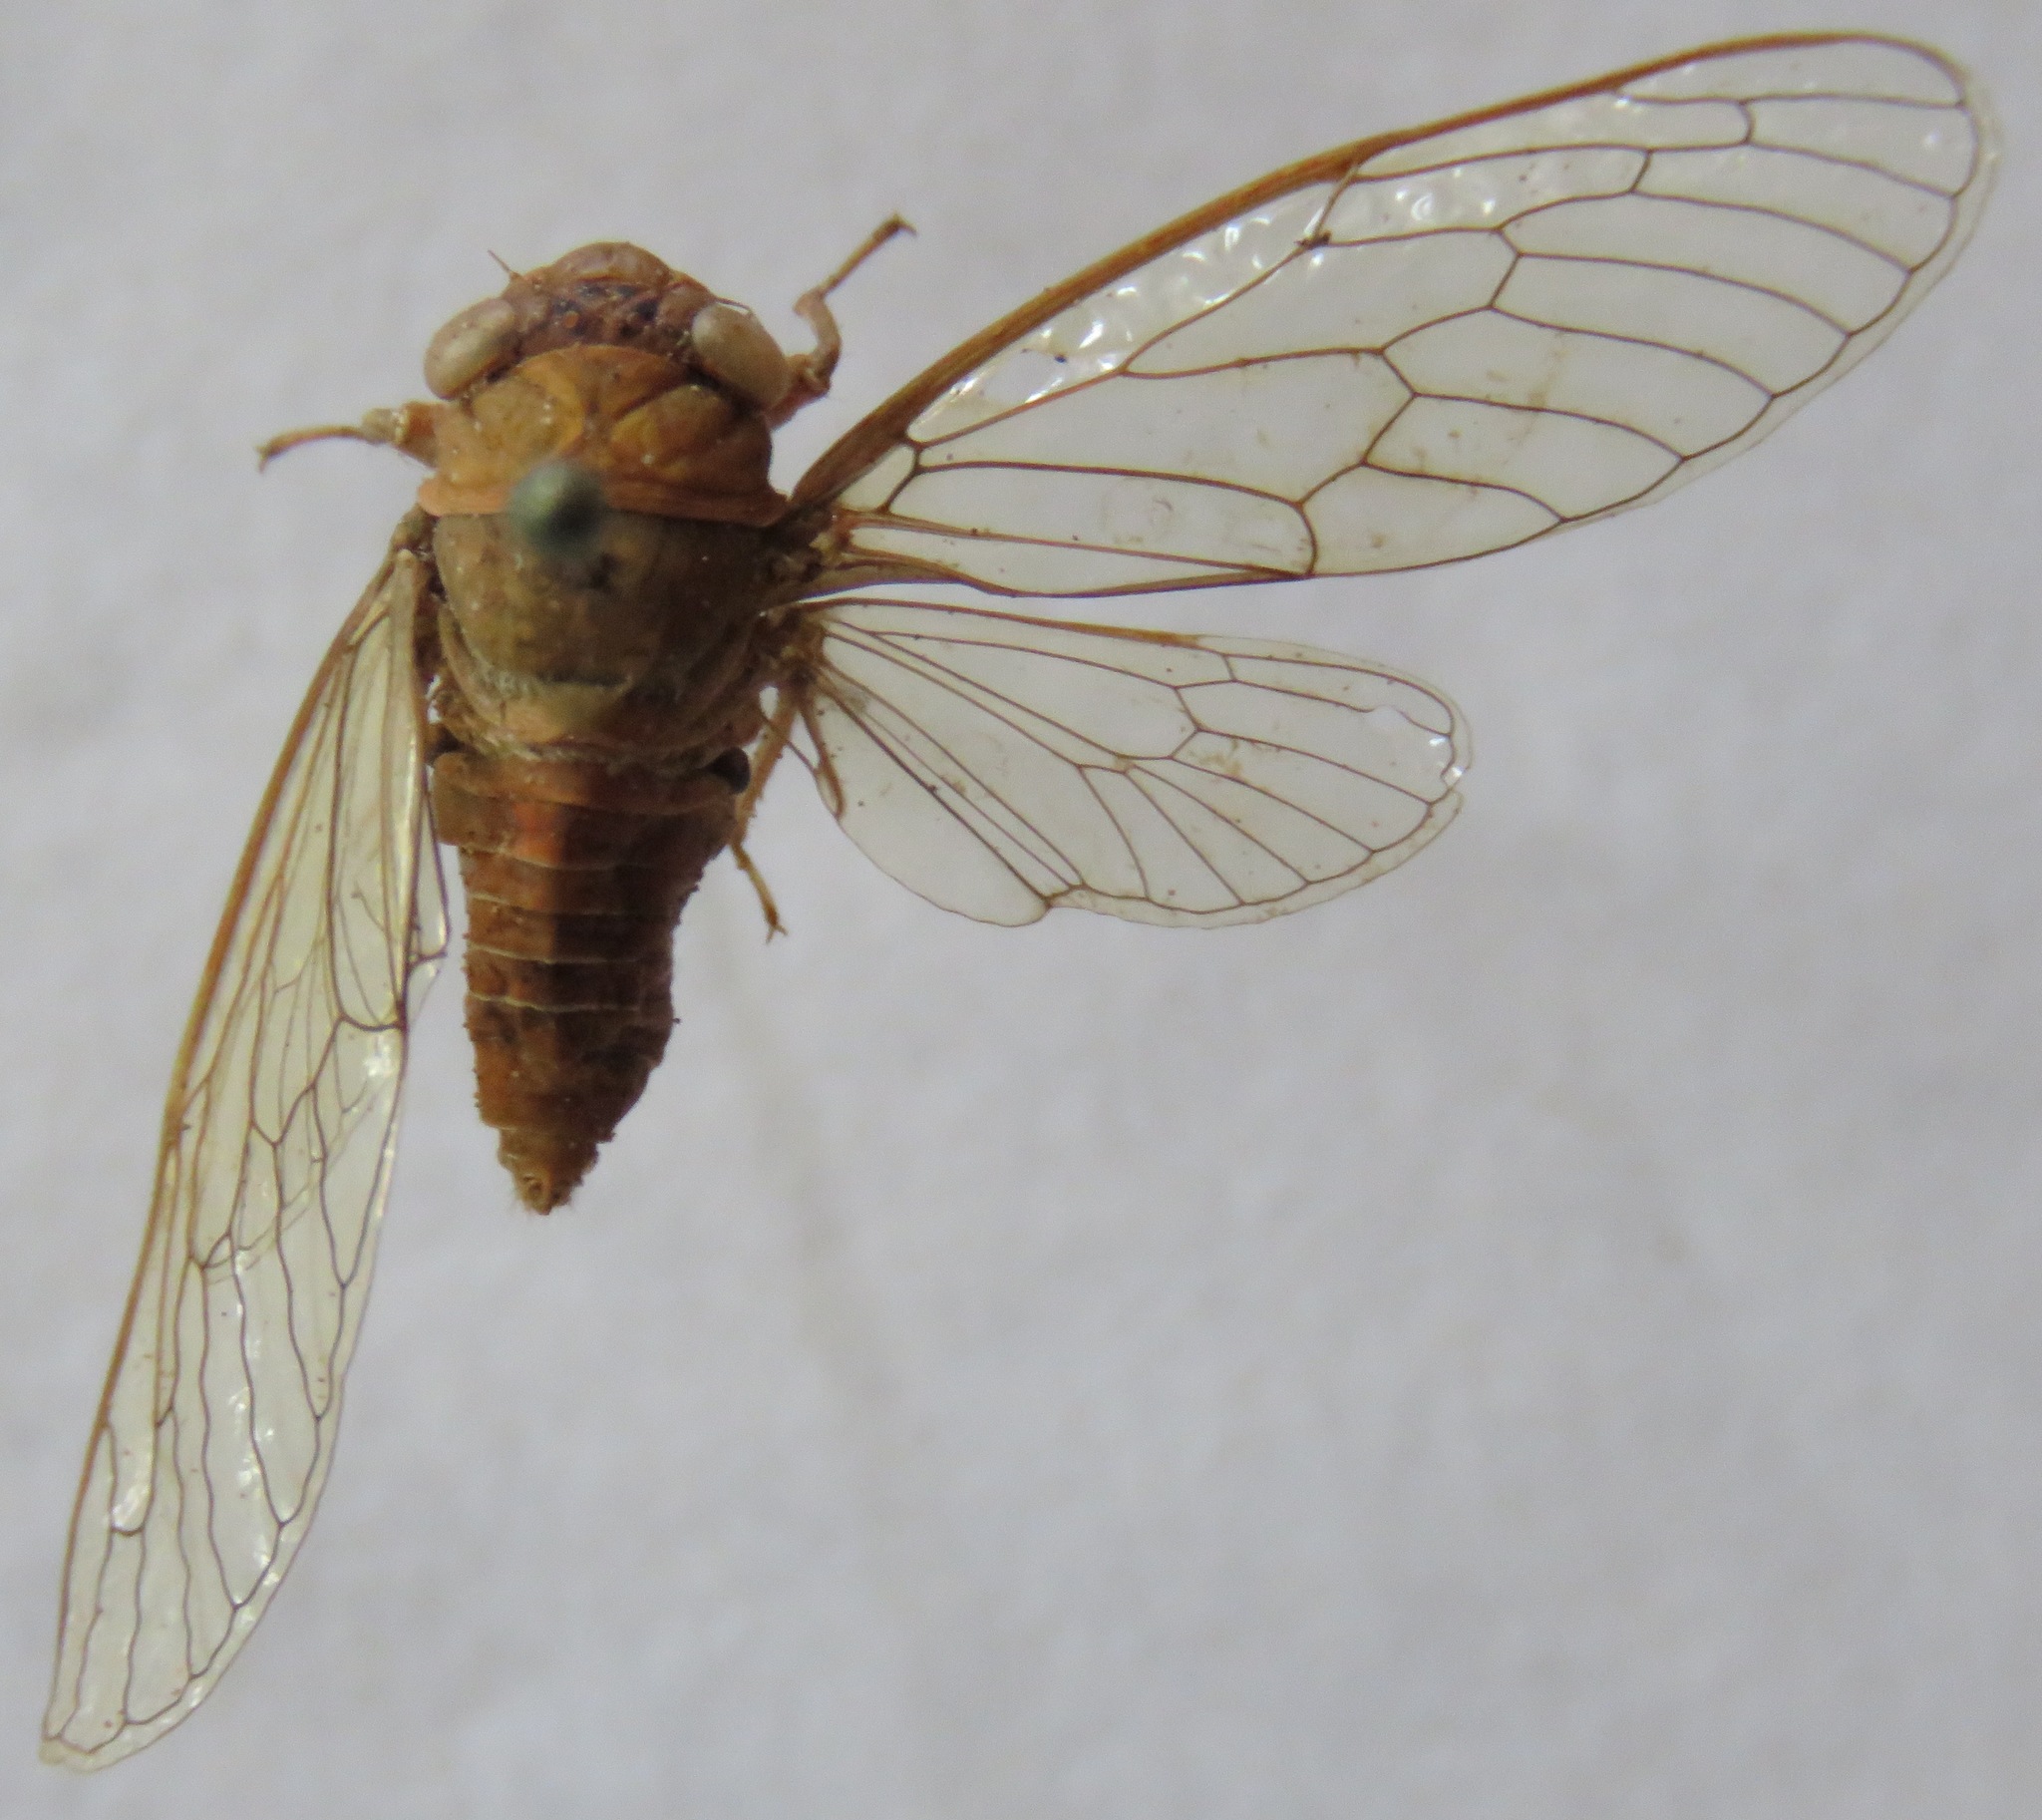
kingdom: Animalia
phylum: Arthropoda
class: Insecta
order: Hemiptera
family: Cicadidae
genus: Herrera
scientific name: Herrera coyamensis
